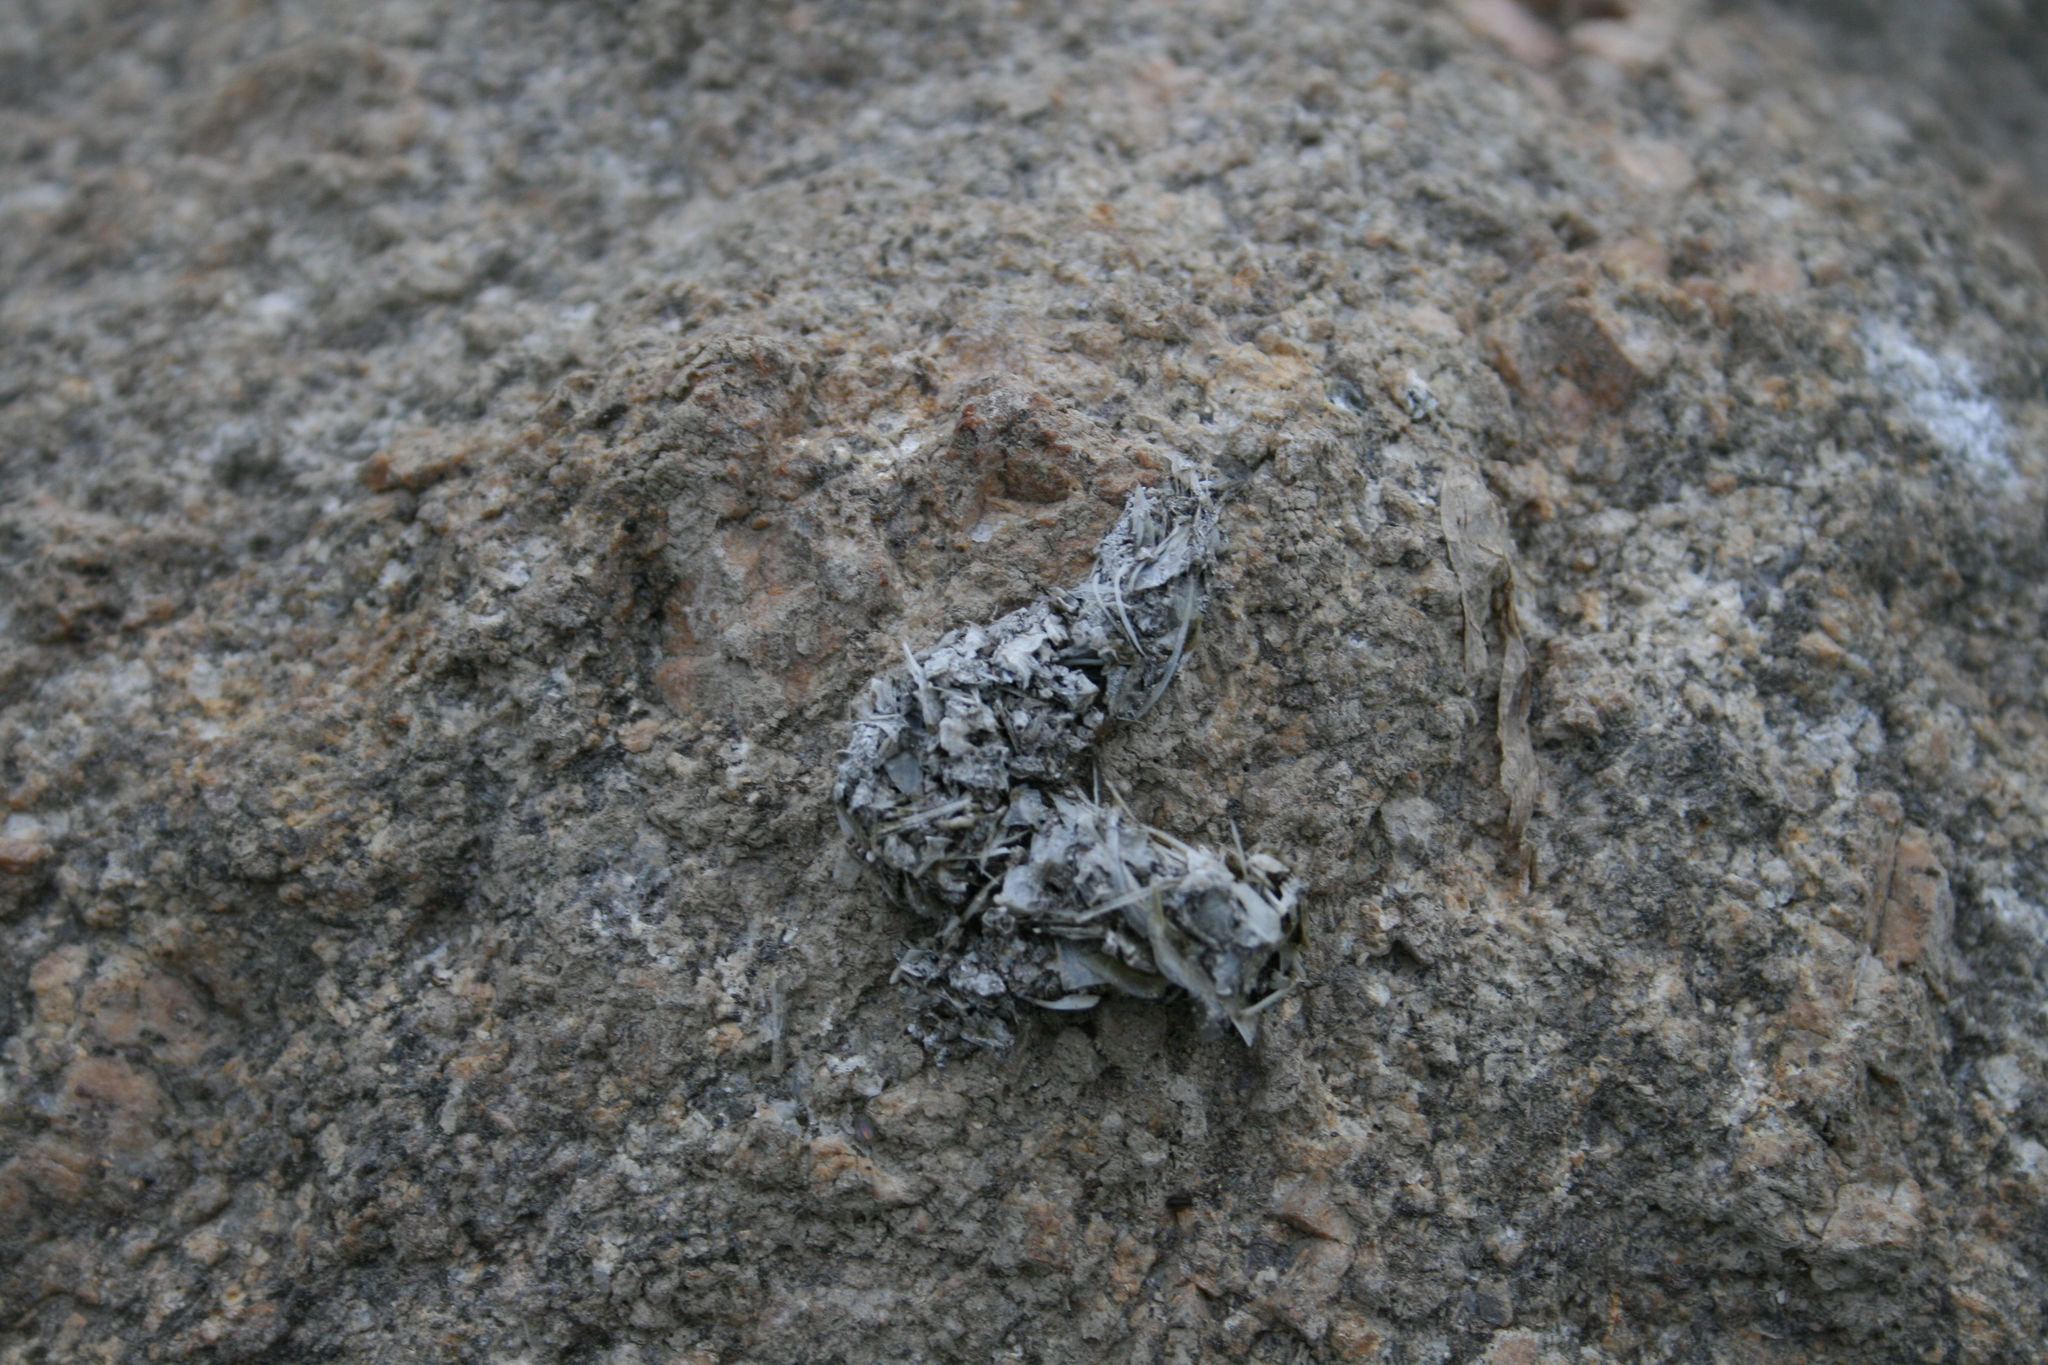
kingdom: Animalia
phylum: Chordata
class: Mammalia
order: Carnivora
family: Mustelidae
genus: Lutra
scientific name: Lutra lutra
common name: European otter
